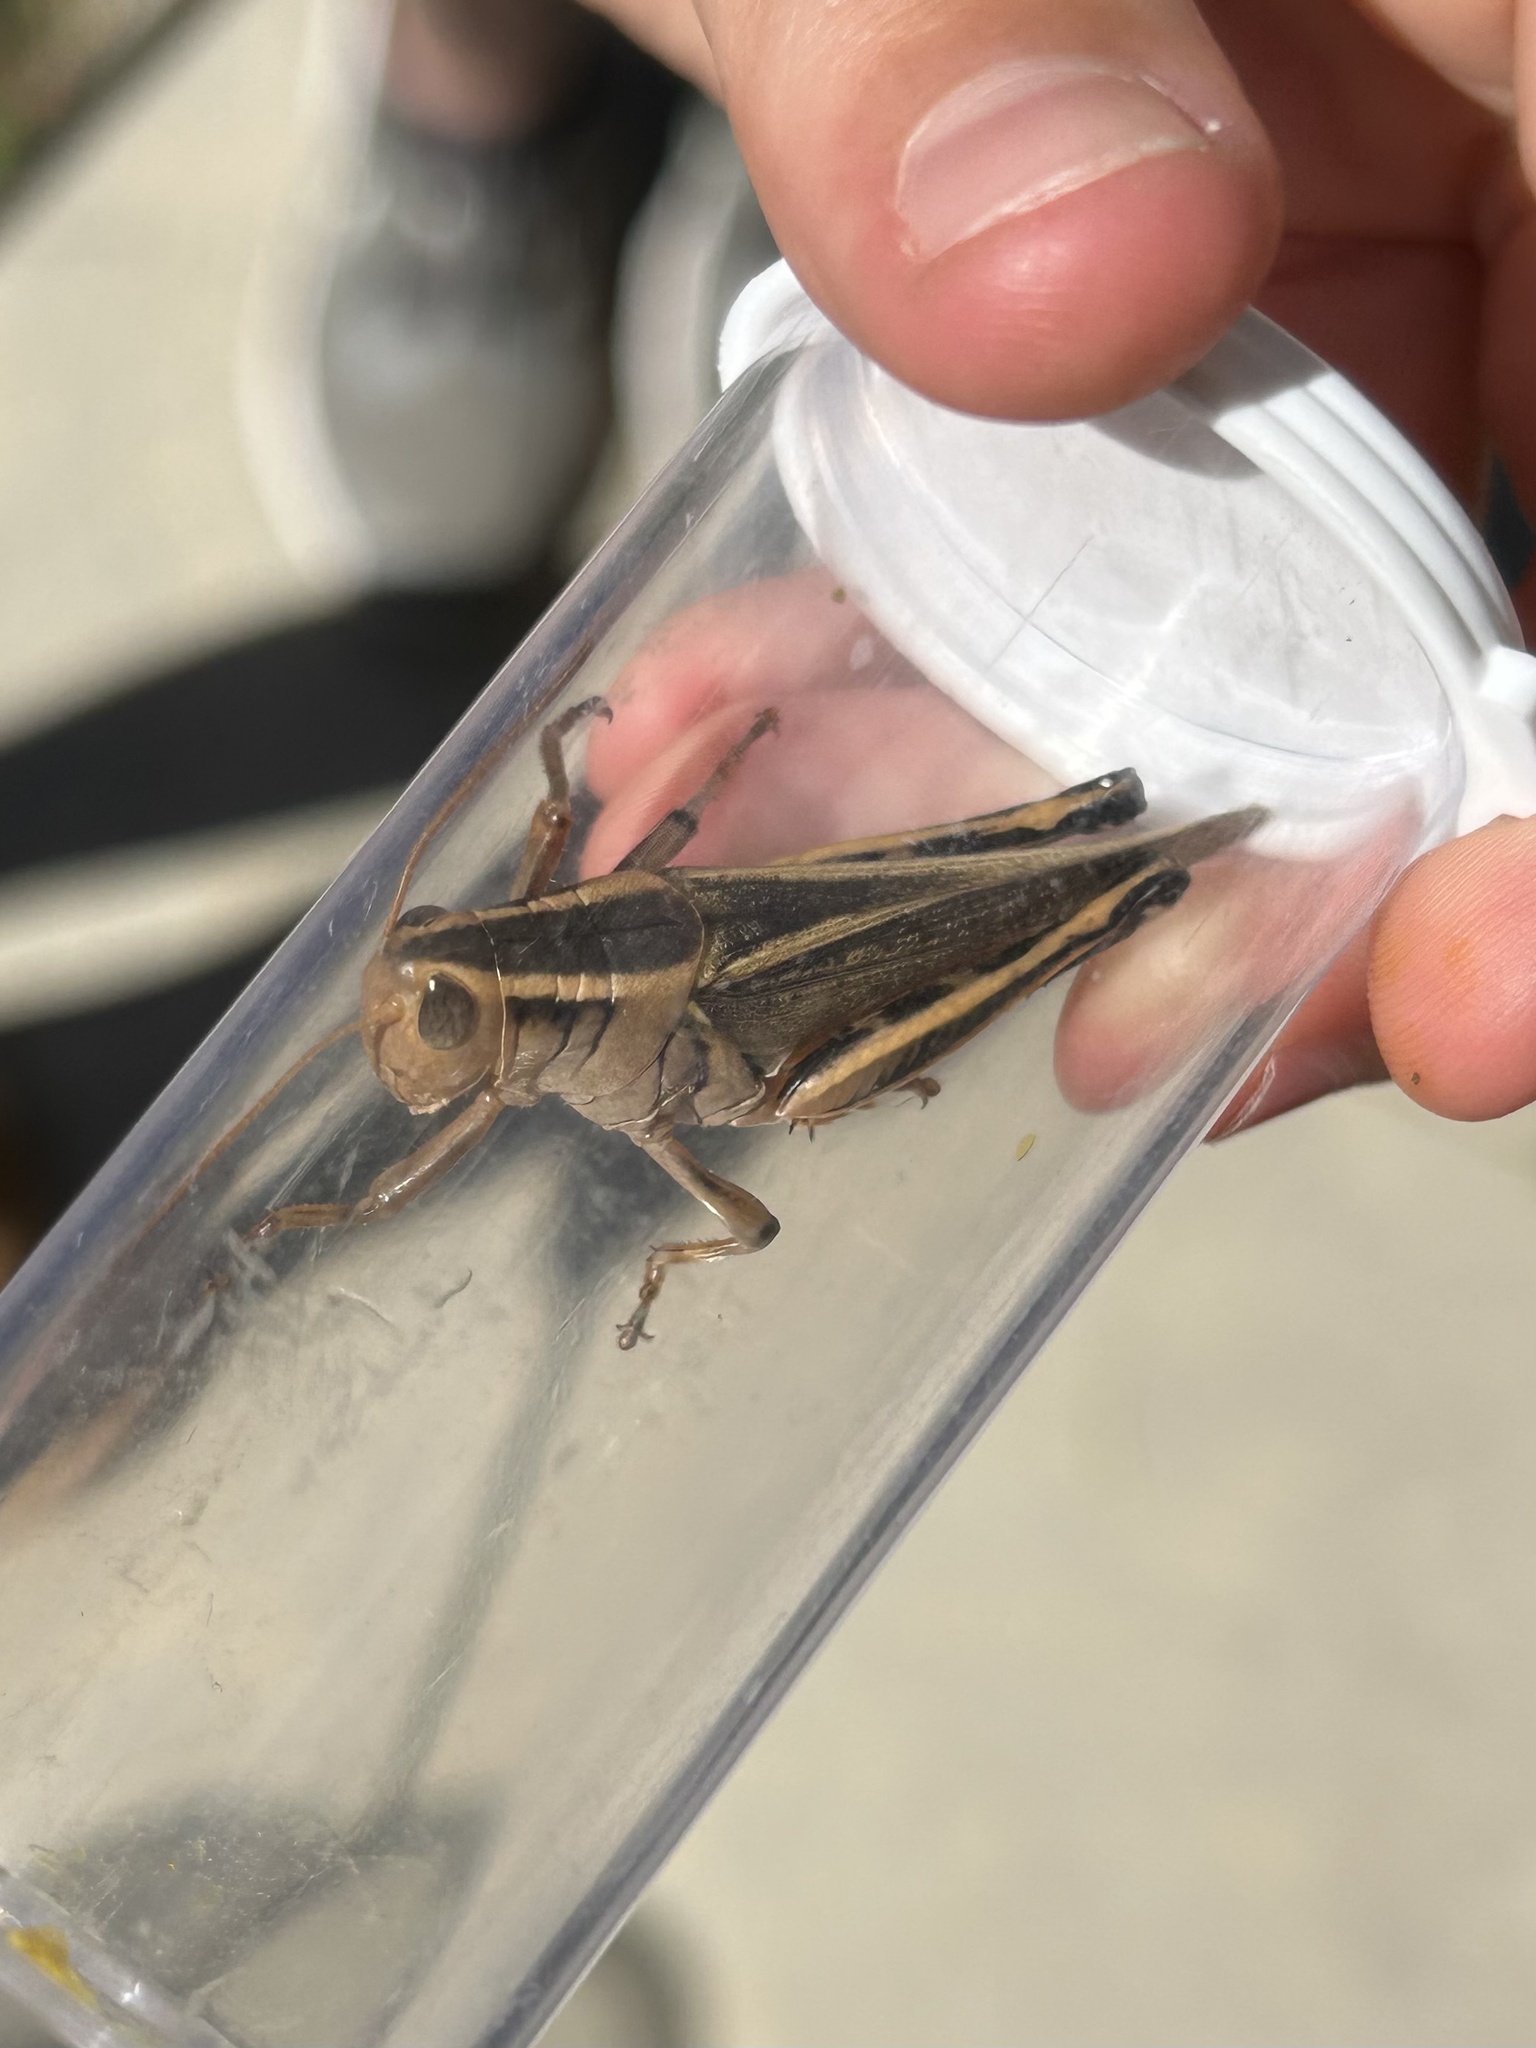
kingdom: Animalia
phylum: Arthropoda
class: Insecta
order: Orthoptera
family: Acrididae
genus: Melanoplus
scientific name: Melanoplus bivittatus
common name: Two-striped grasshopper
